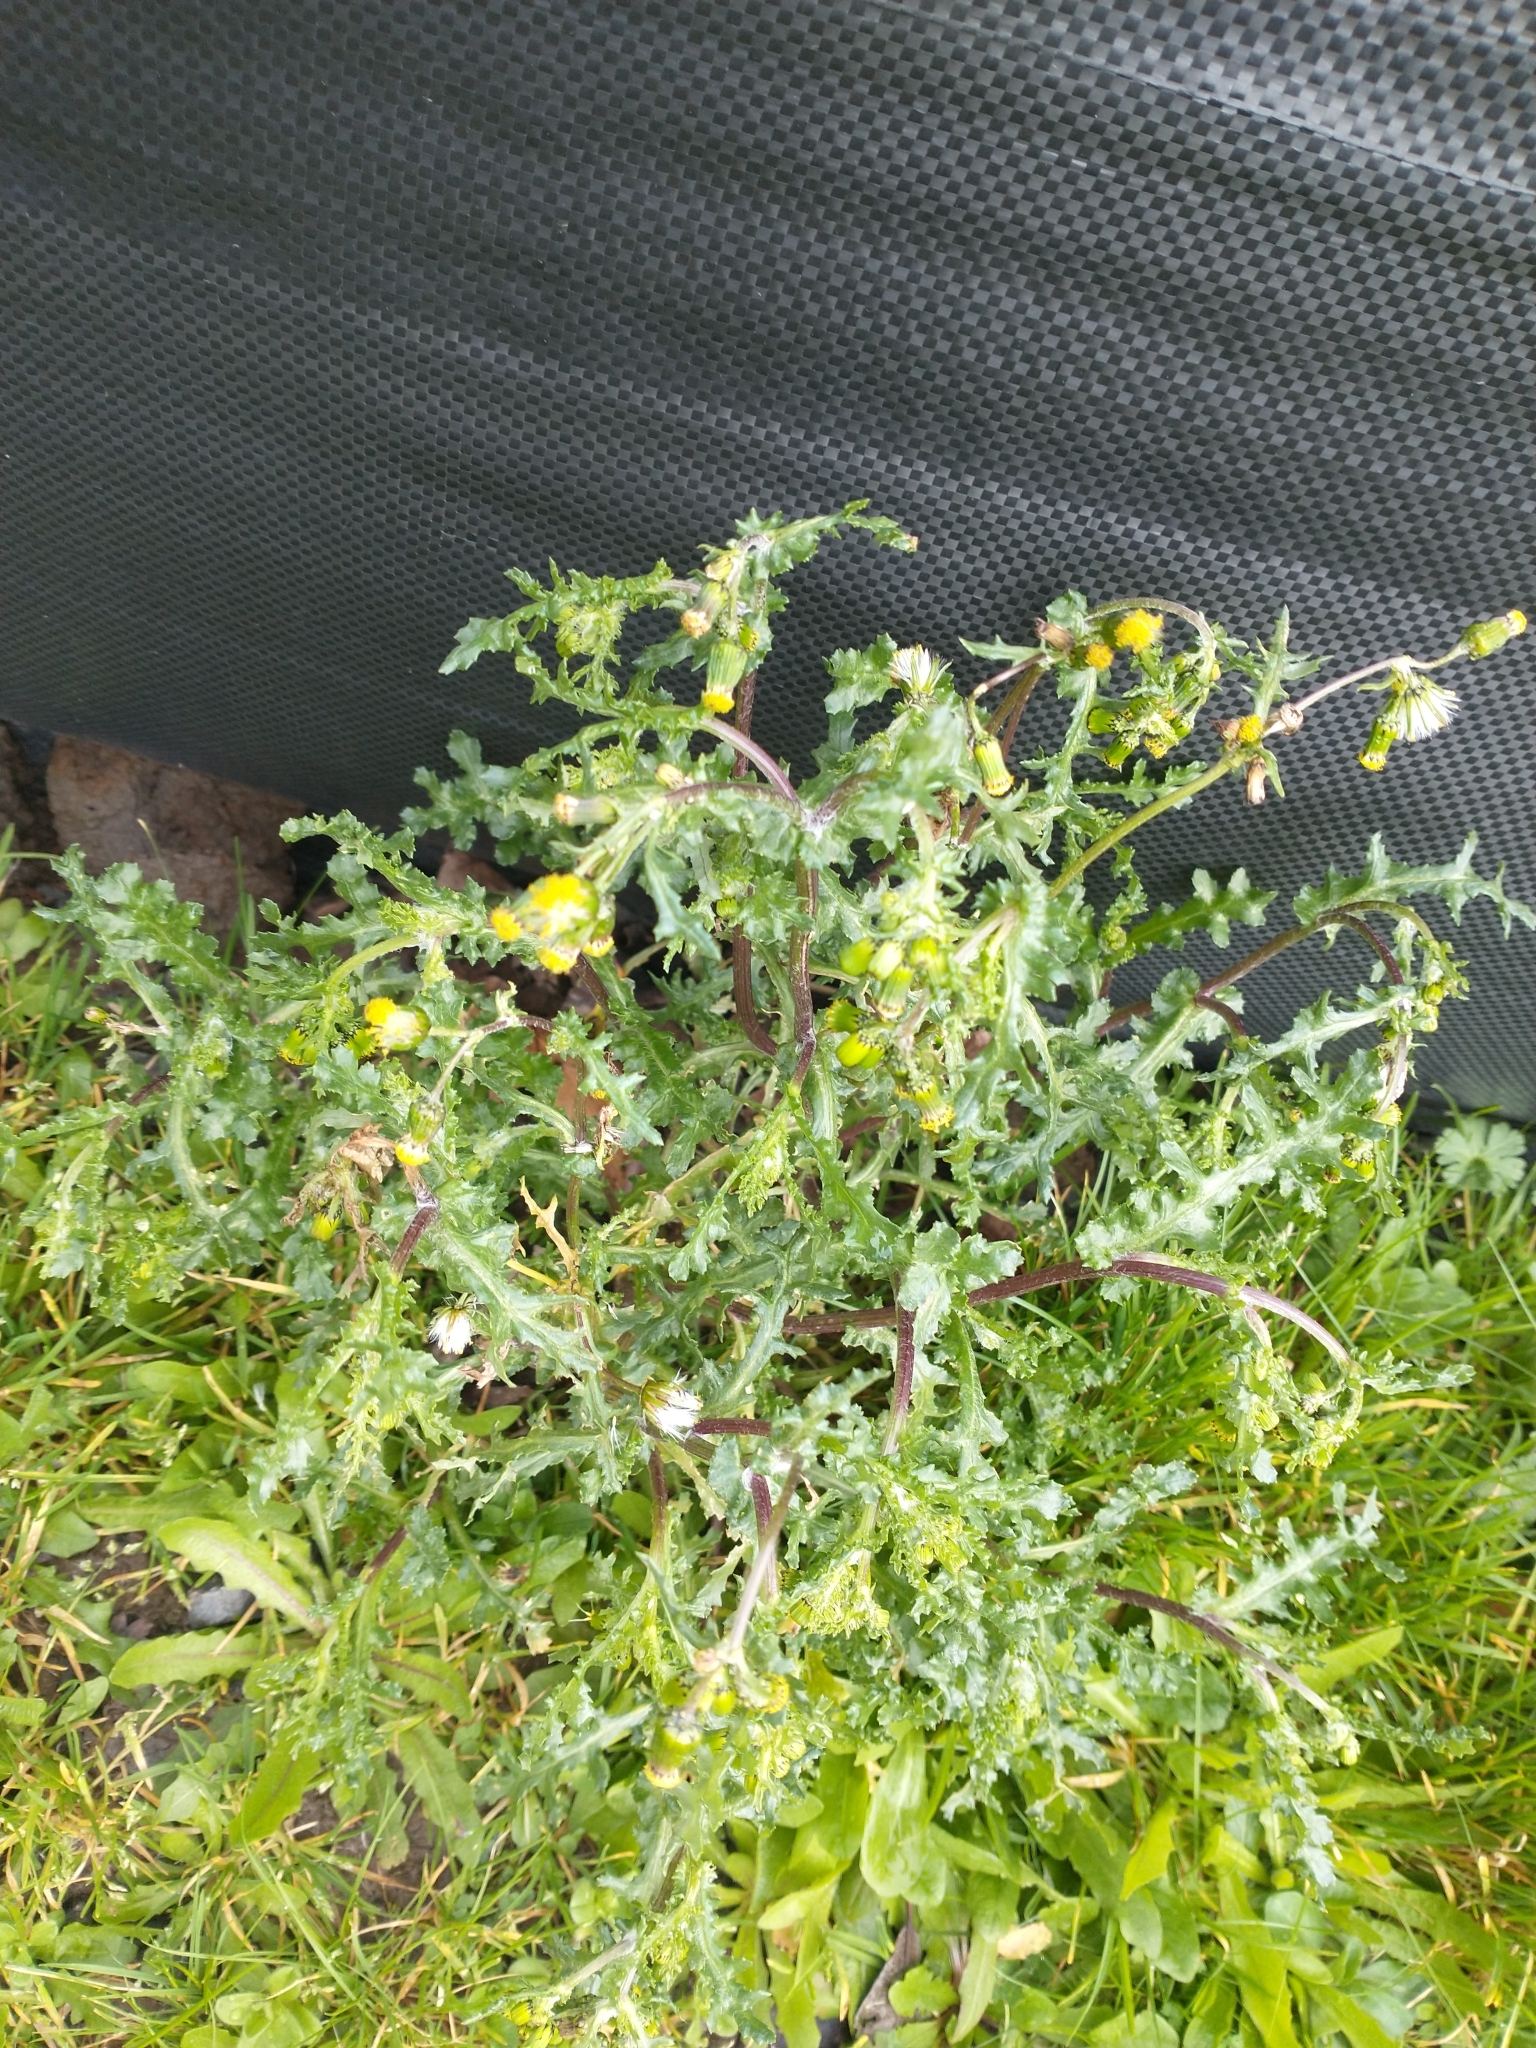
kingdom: Plantae
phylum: Tracheophyta
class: Magnoliopsida
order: Asterales
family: Asteraceae
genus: Senecio
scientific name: Senecio vulgaris
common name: Old-man-in-the-spring
